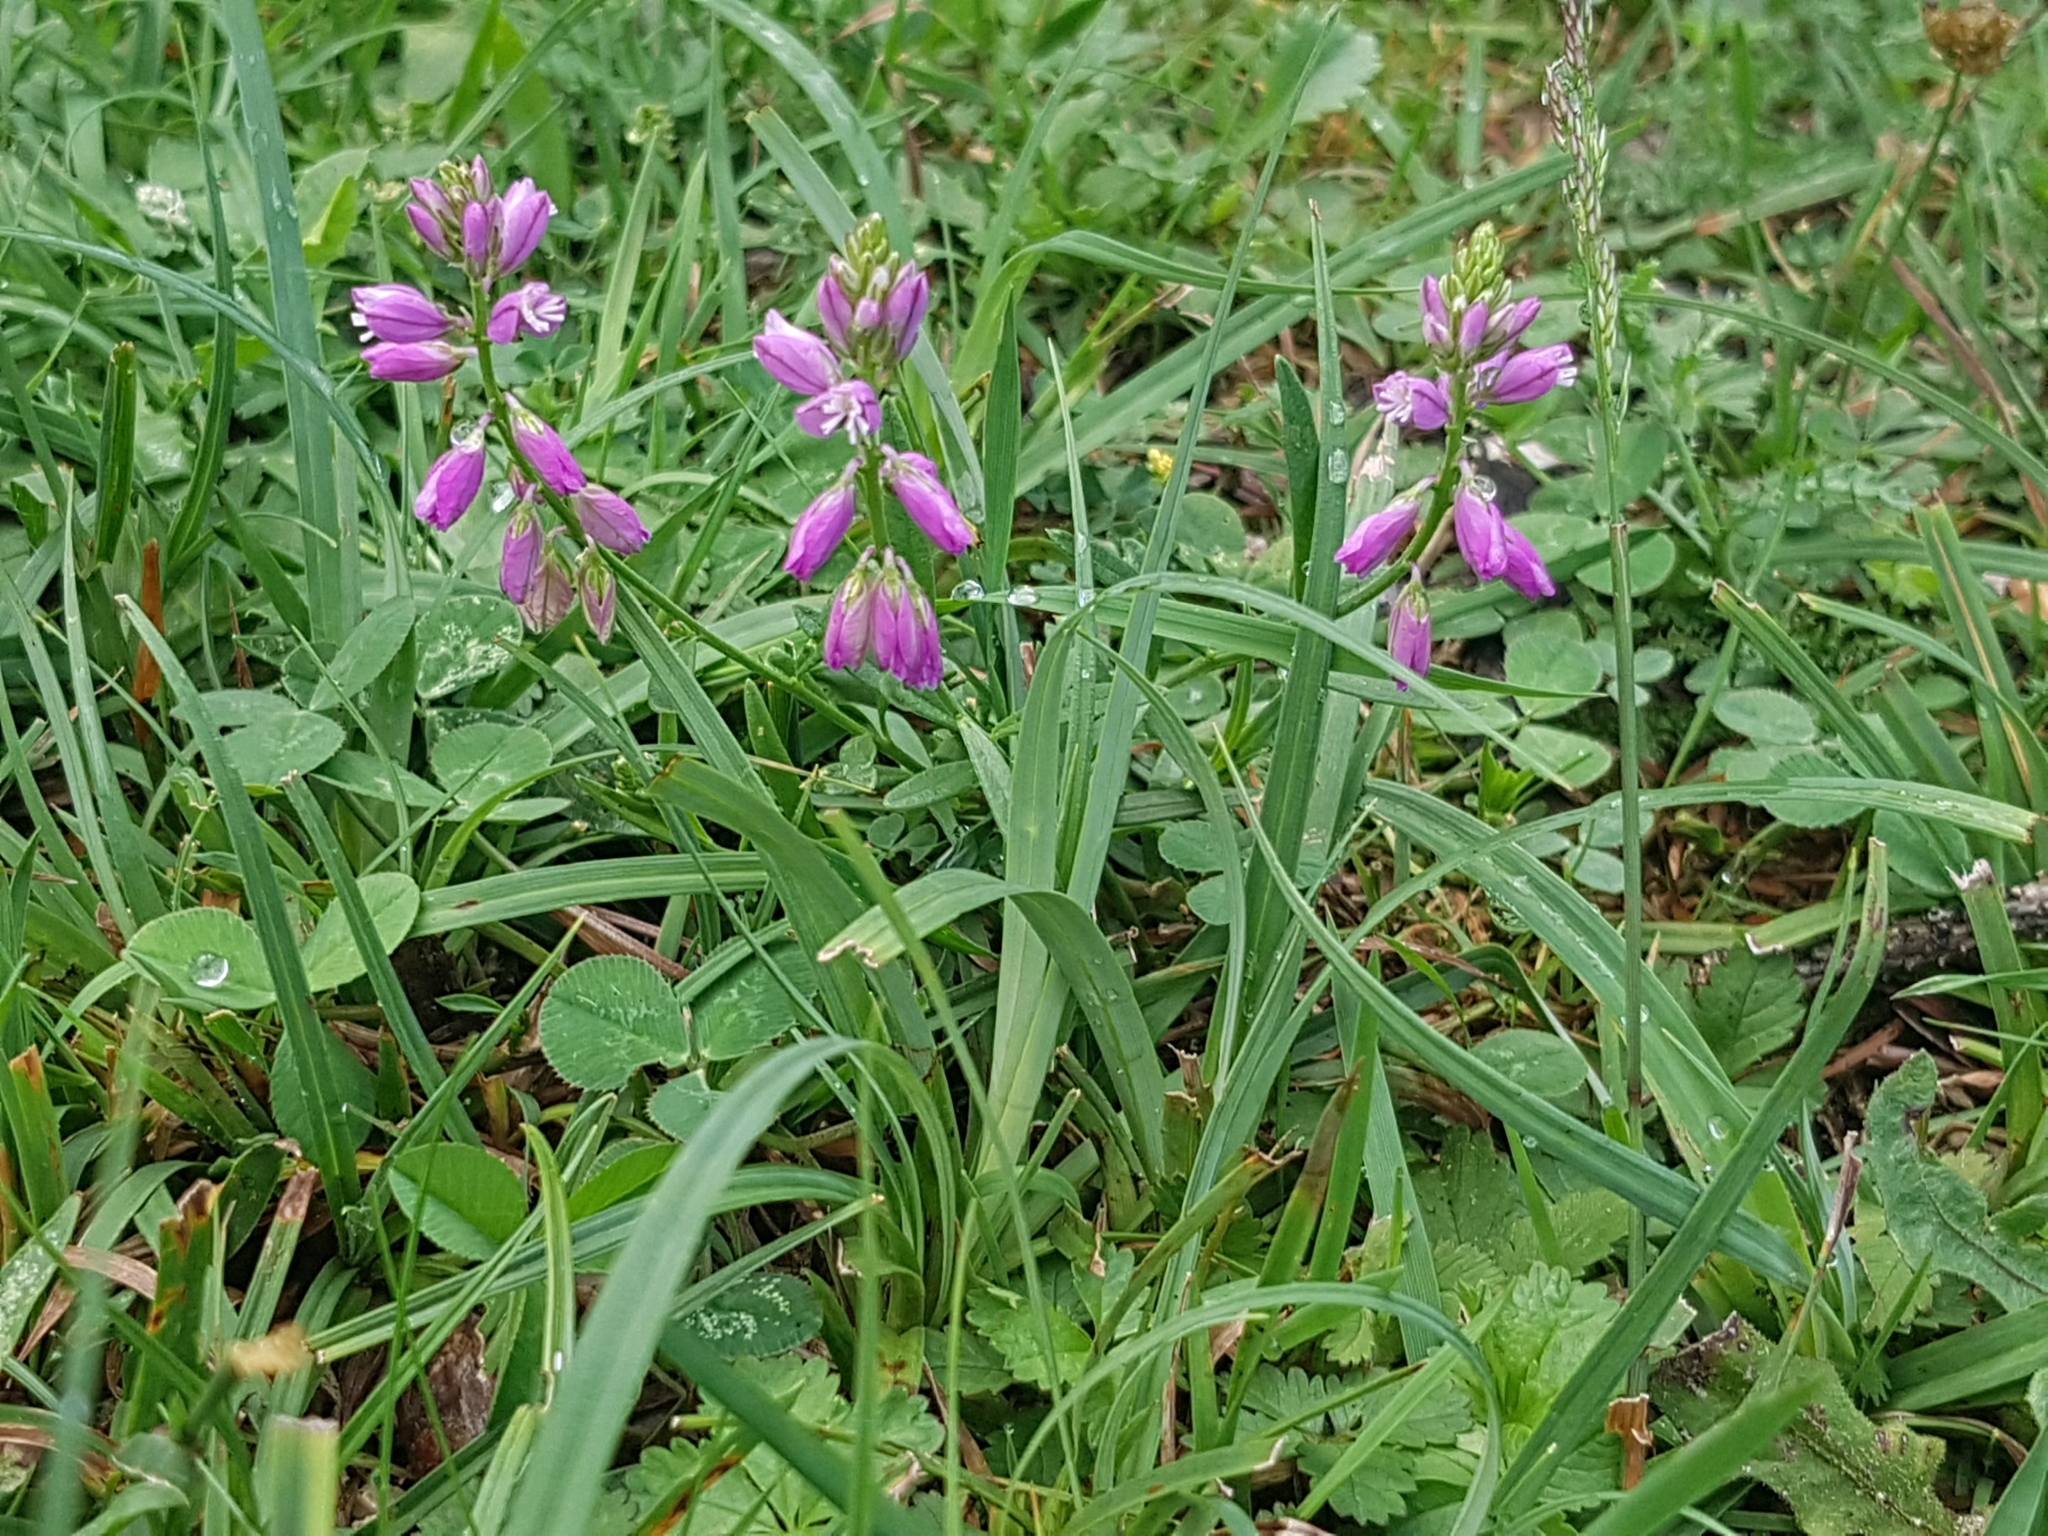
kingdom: Plantae
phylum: Tracheophyta
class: Magnoliopsida
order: Fabales
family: Polygalaceae
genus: Polygala
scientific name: Polygala comosa
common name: Tufted milkwort
